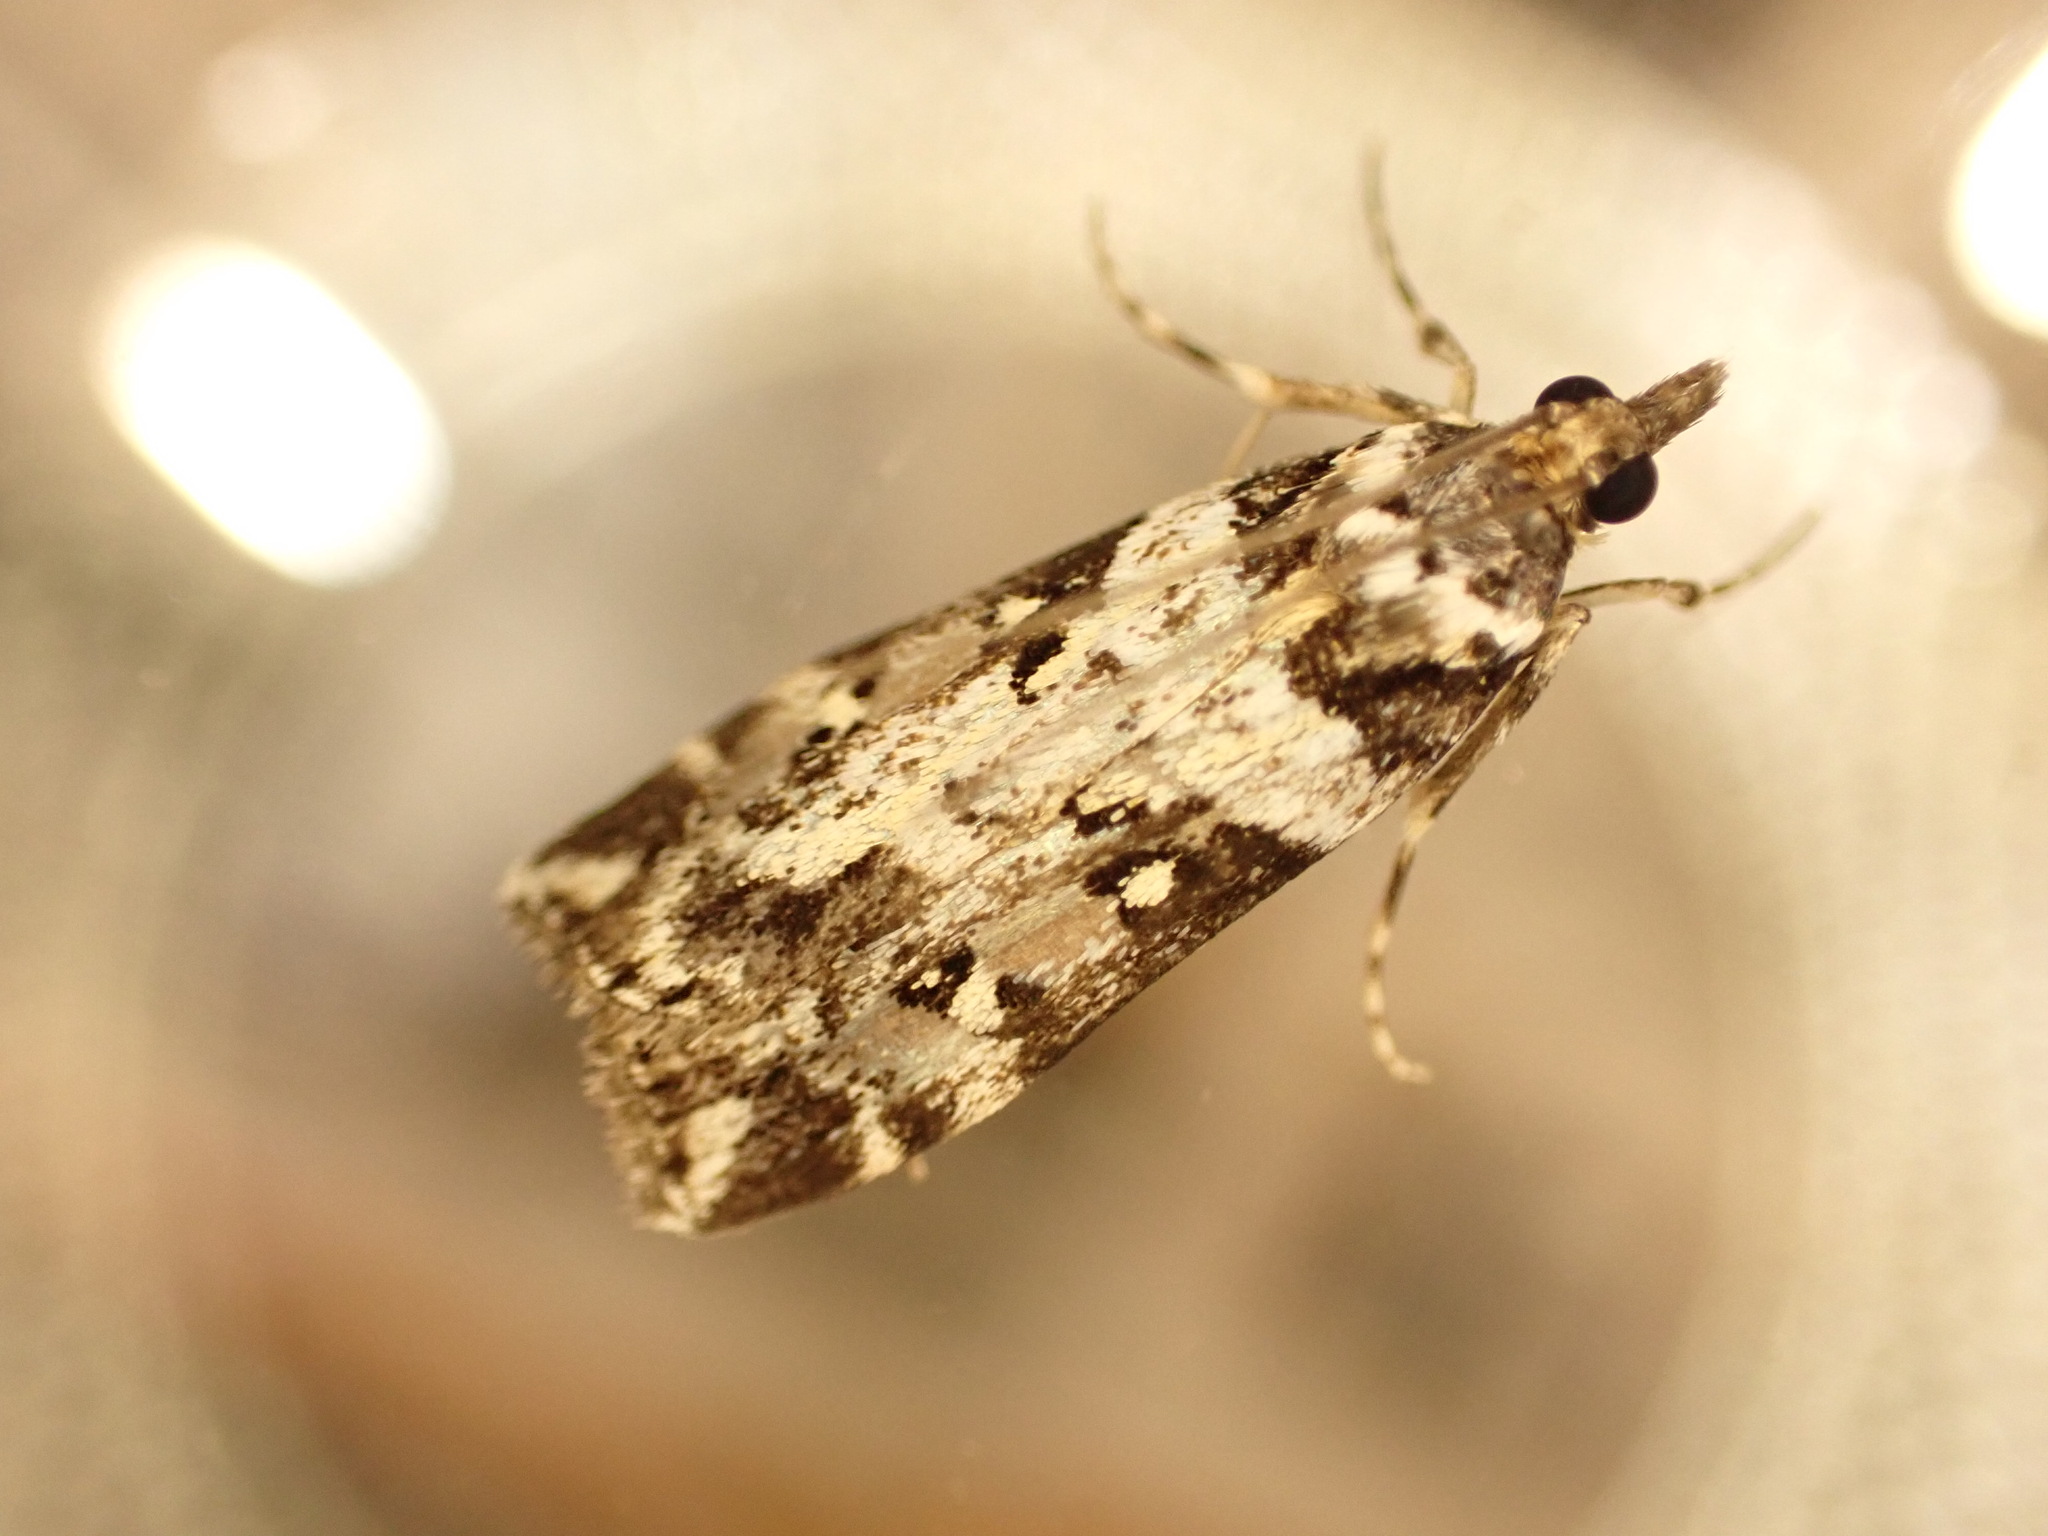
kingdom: Animalia
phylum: Arthropoda
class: Insecta
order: Lepidoptera
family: Crambidae
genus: Eudonia
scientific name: Eudonia diphtheralis
